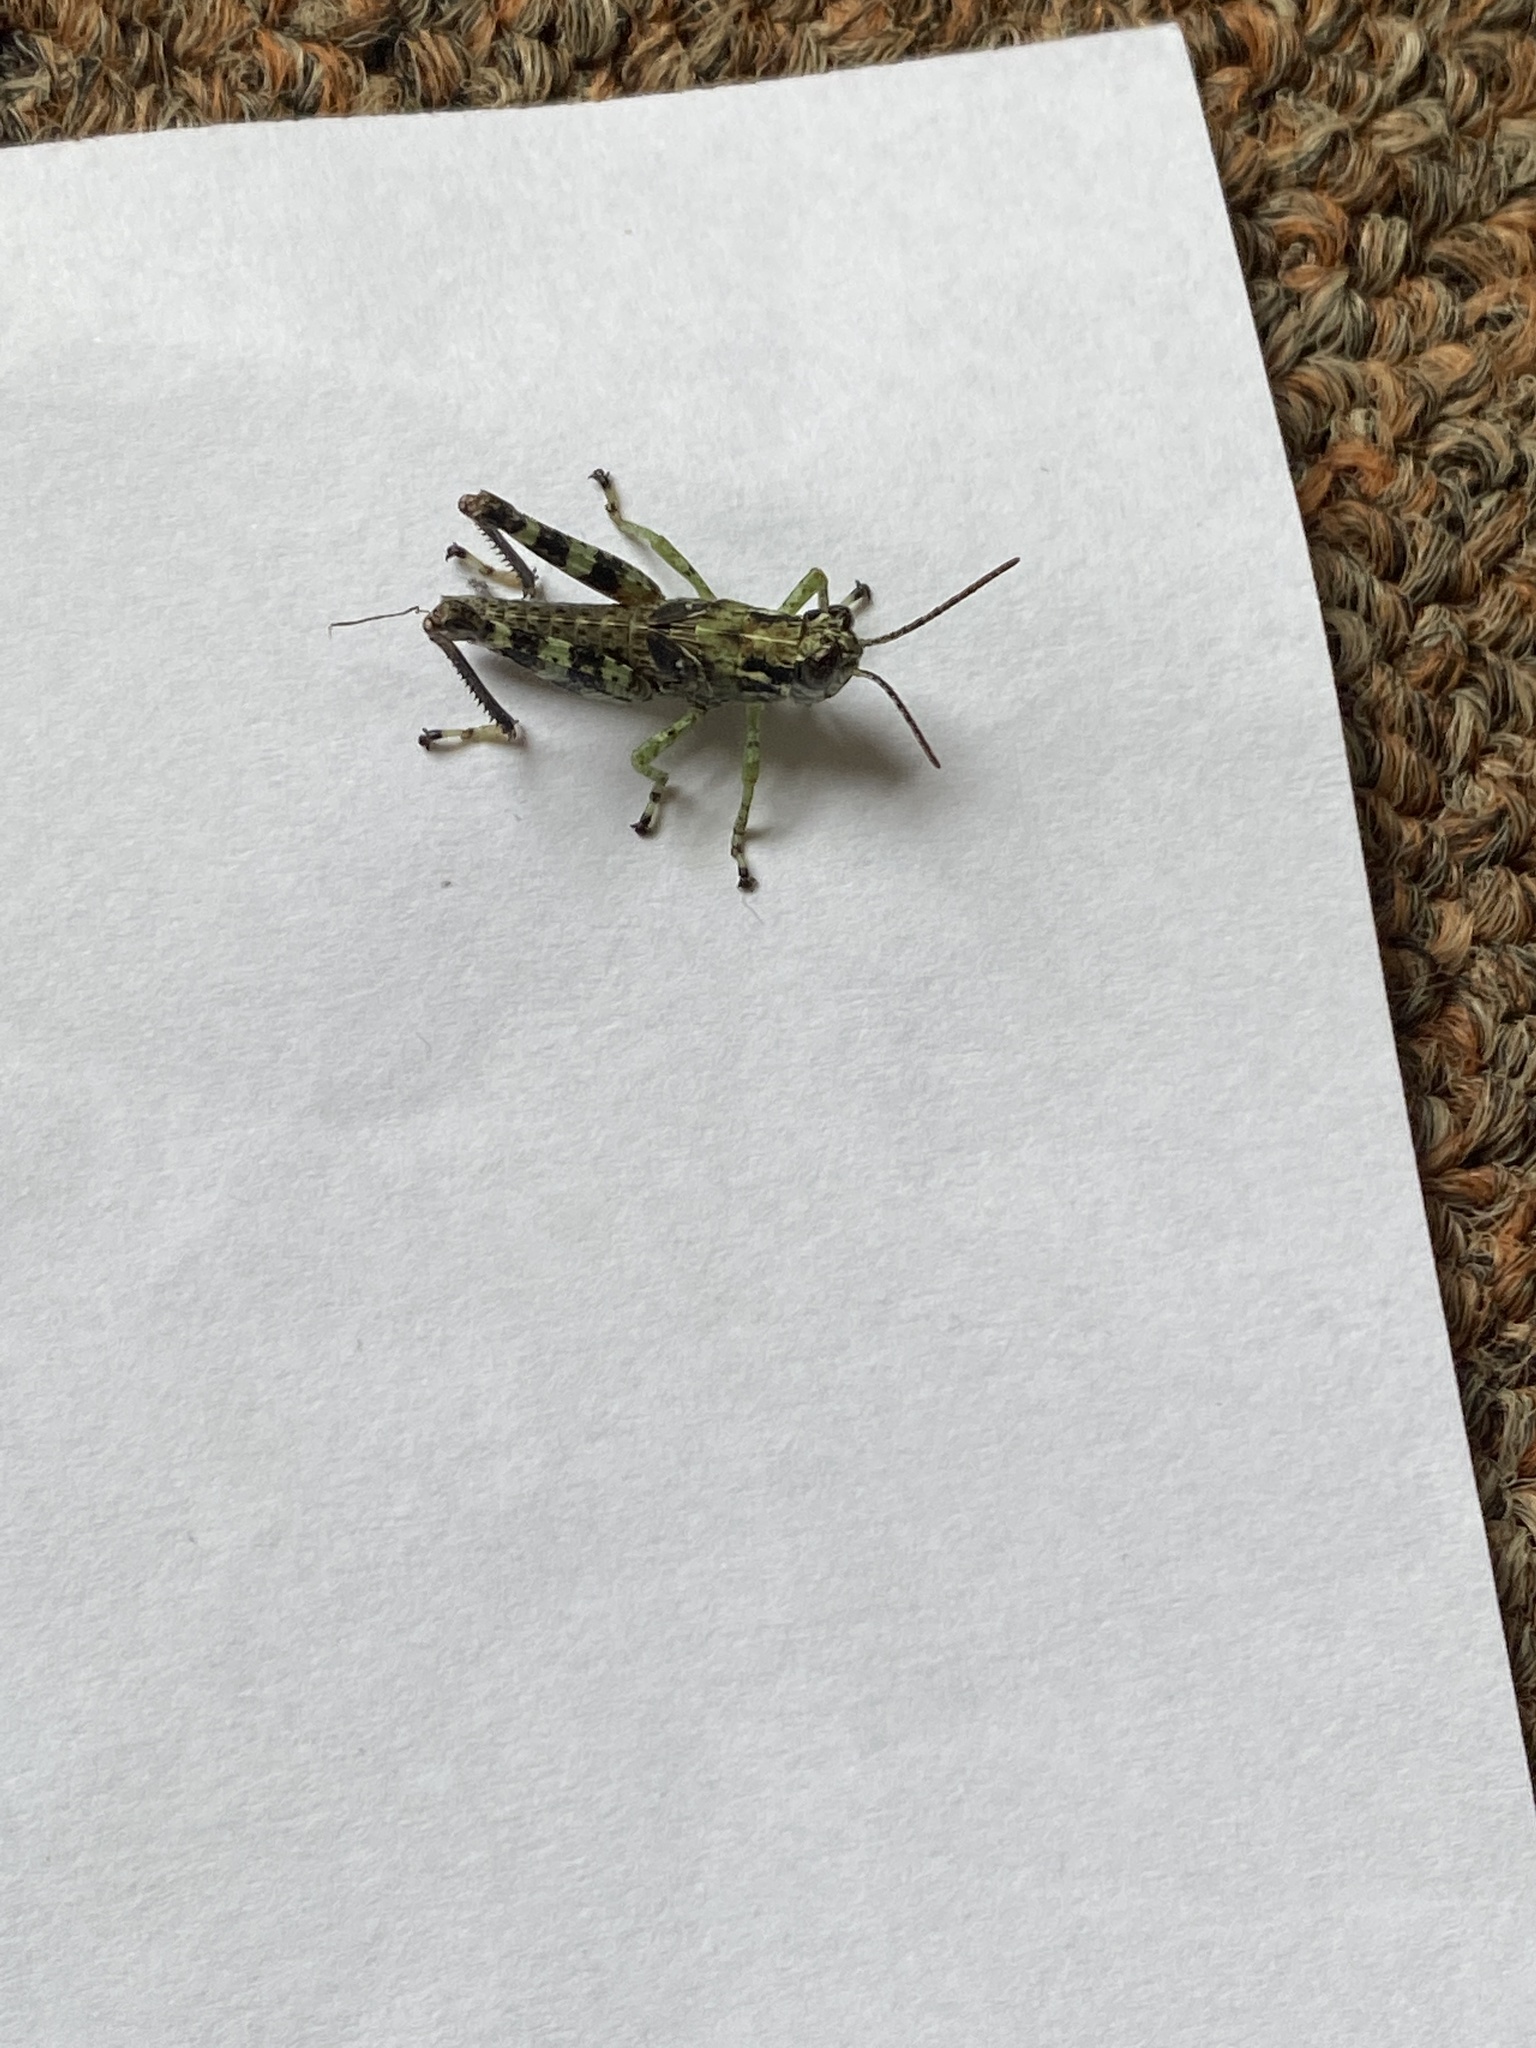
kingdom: Animalia
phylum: Arthropoda
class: Insecta
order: Orthoptera
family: Acrididae
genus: Melanoplus
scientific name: Melanoplus punctulatus
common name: Pine-tree spur-throat grasshopper
